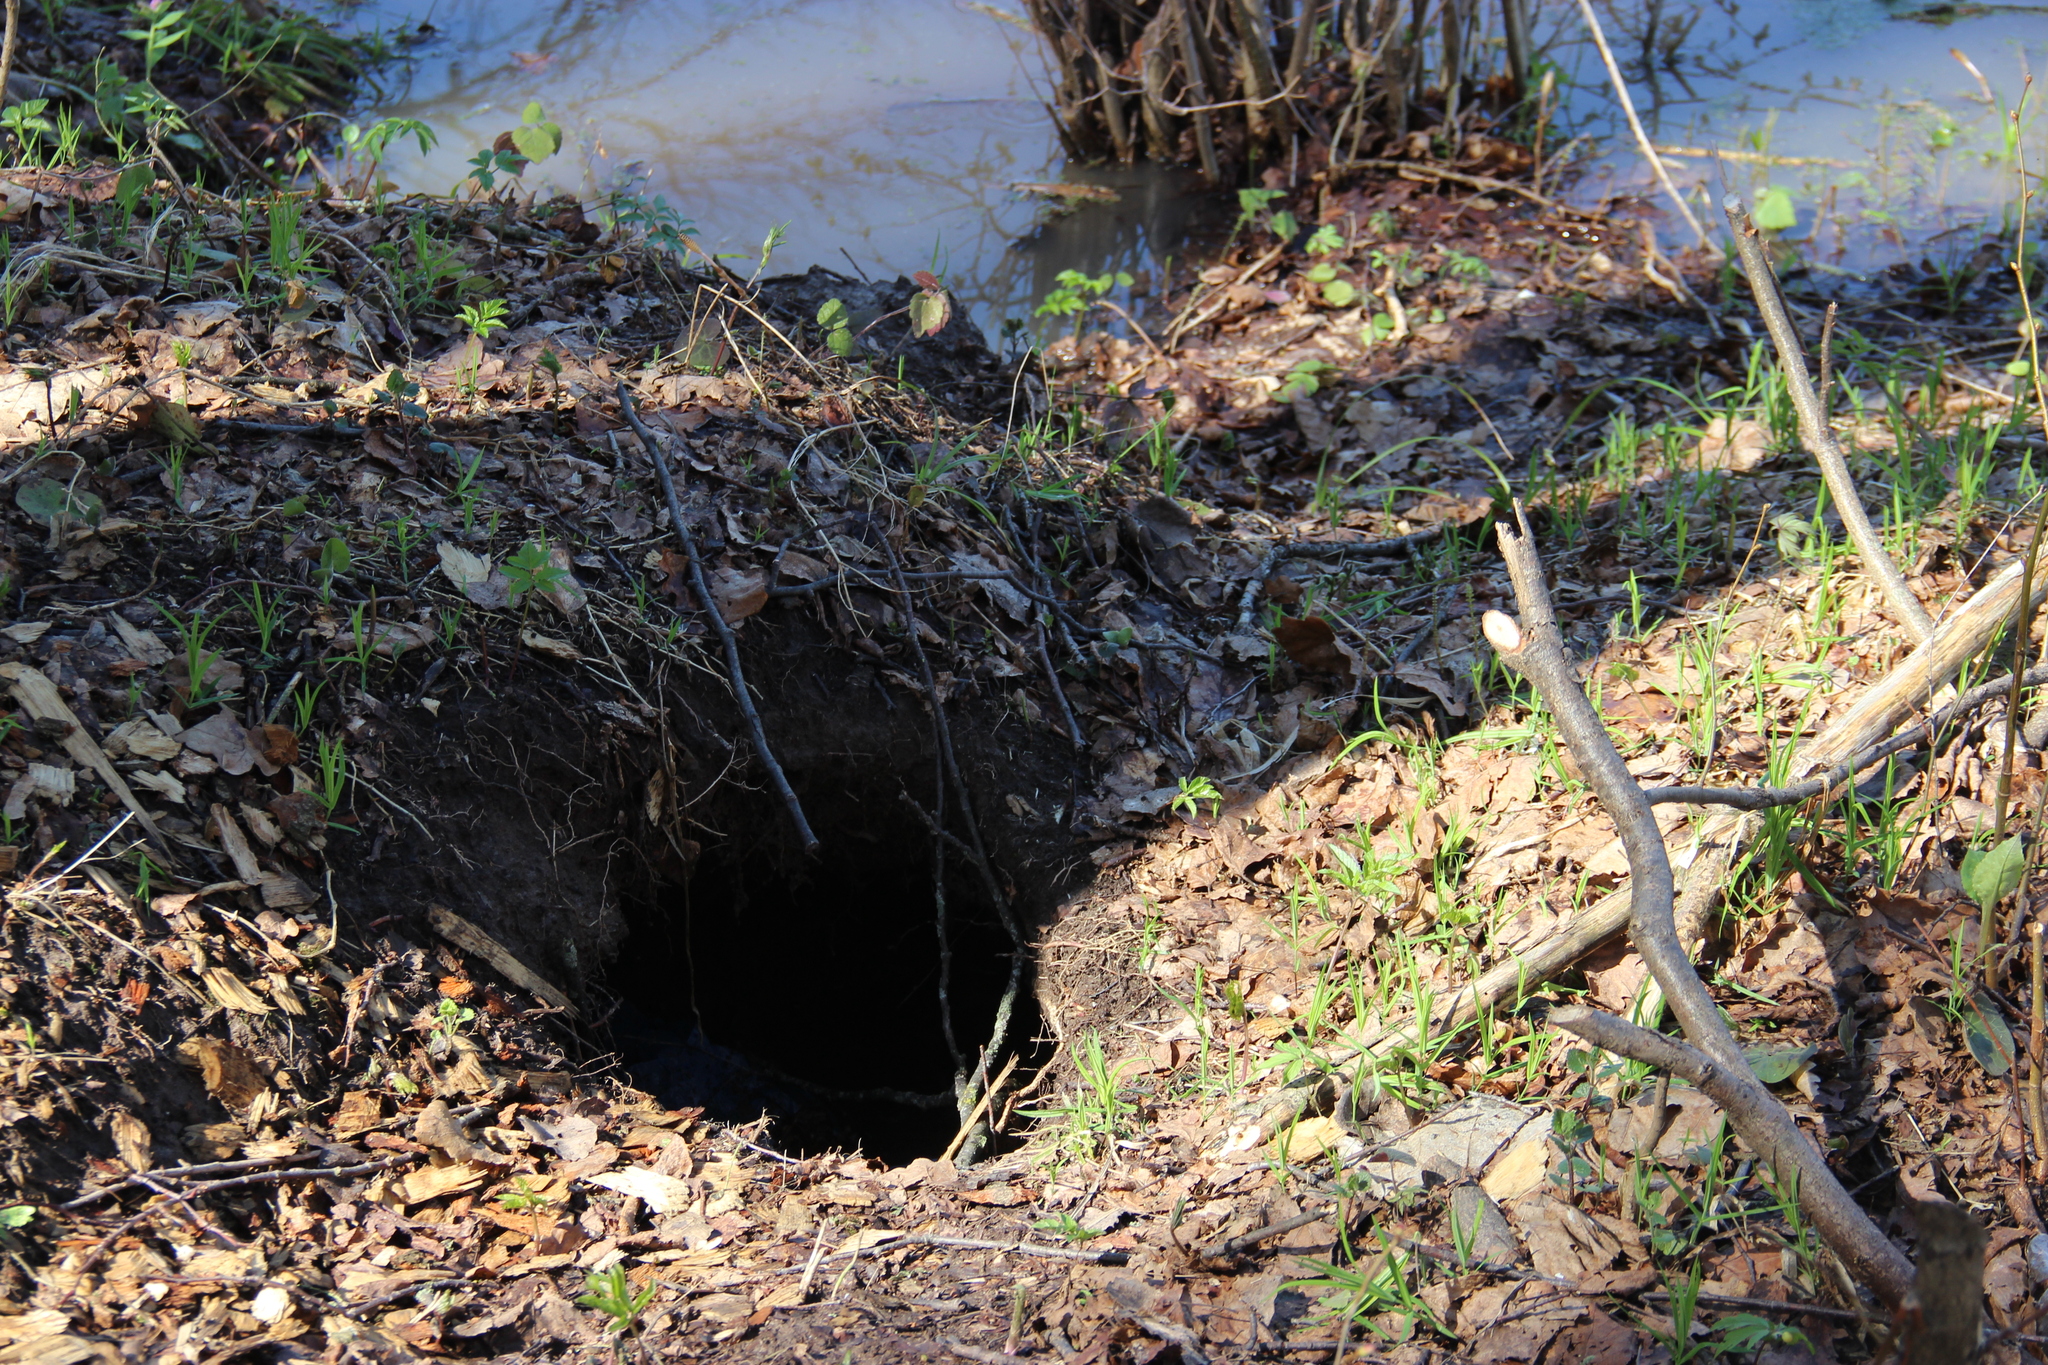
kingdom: Animalia
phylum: Chordata
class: Mammalia
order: Rodentia
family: Castoridae
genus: Castor
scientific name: Castor fiber
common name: Eurasian beaver
